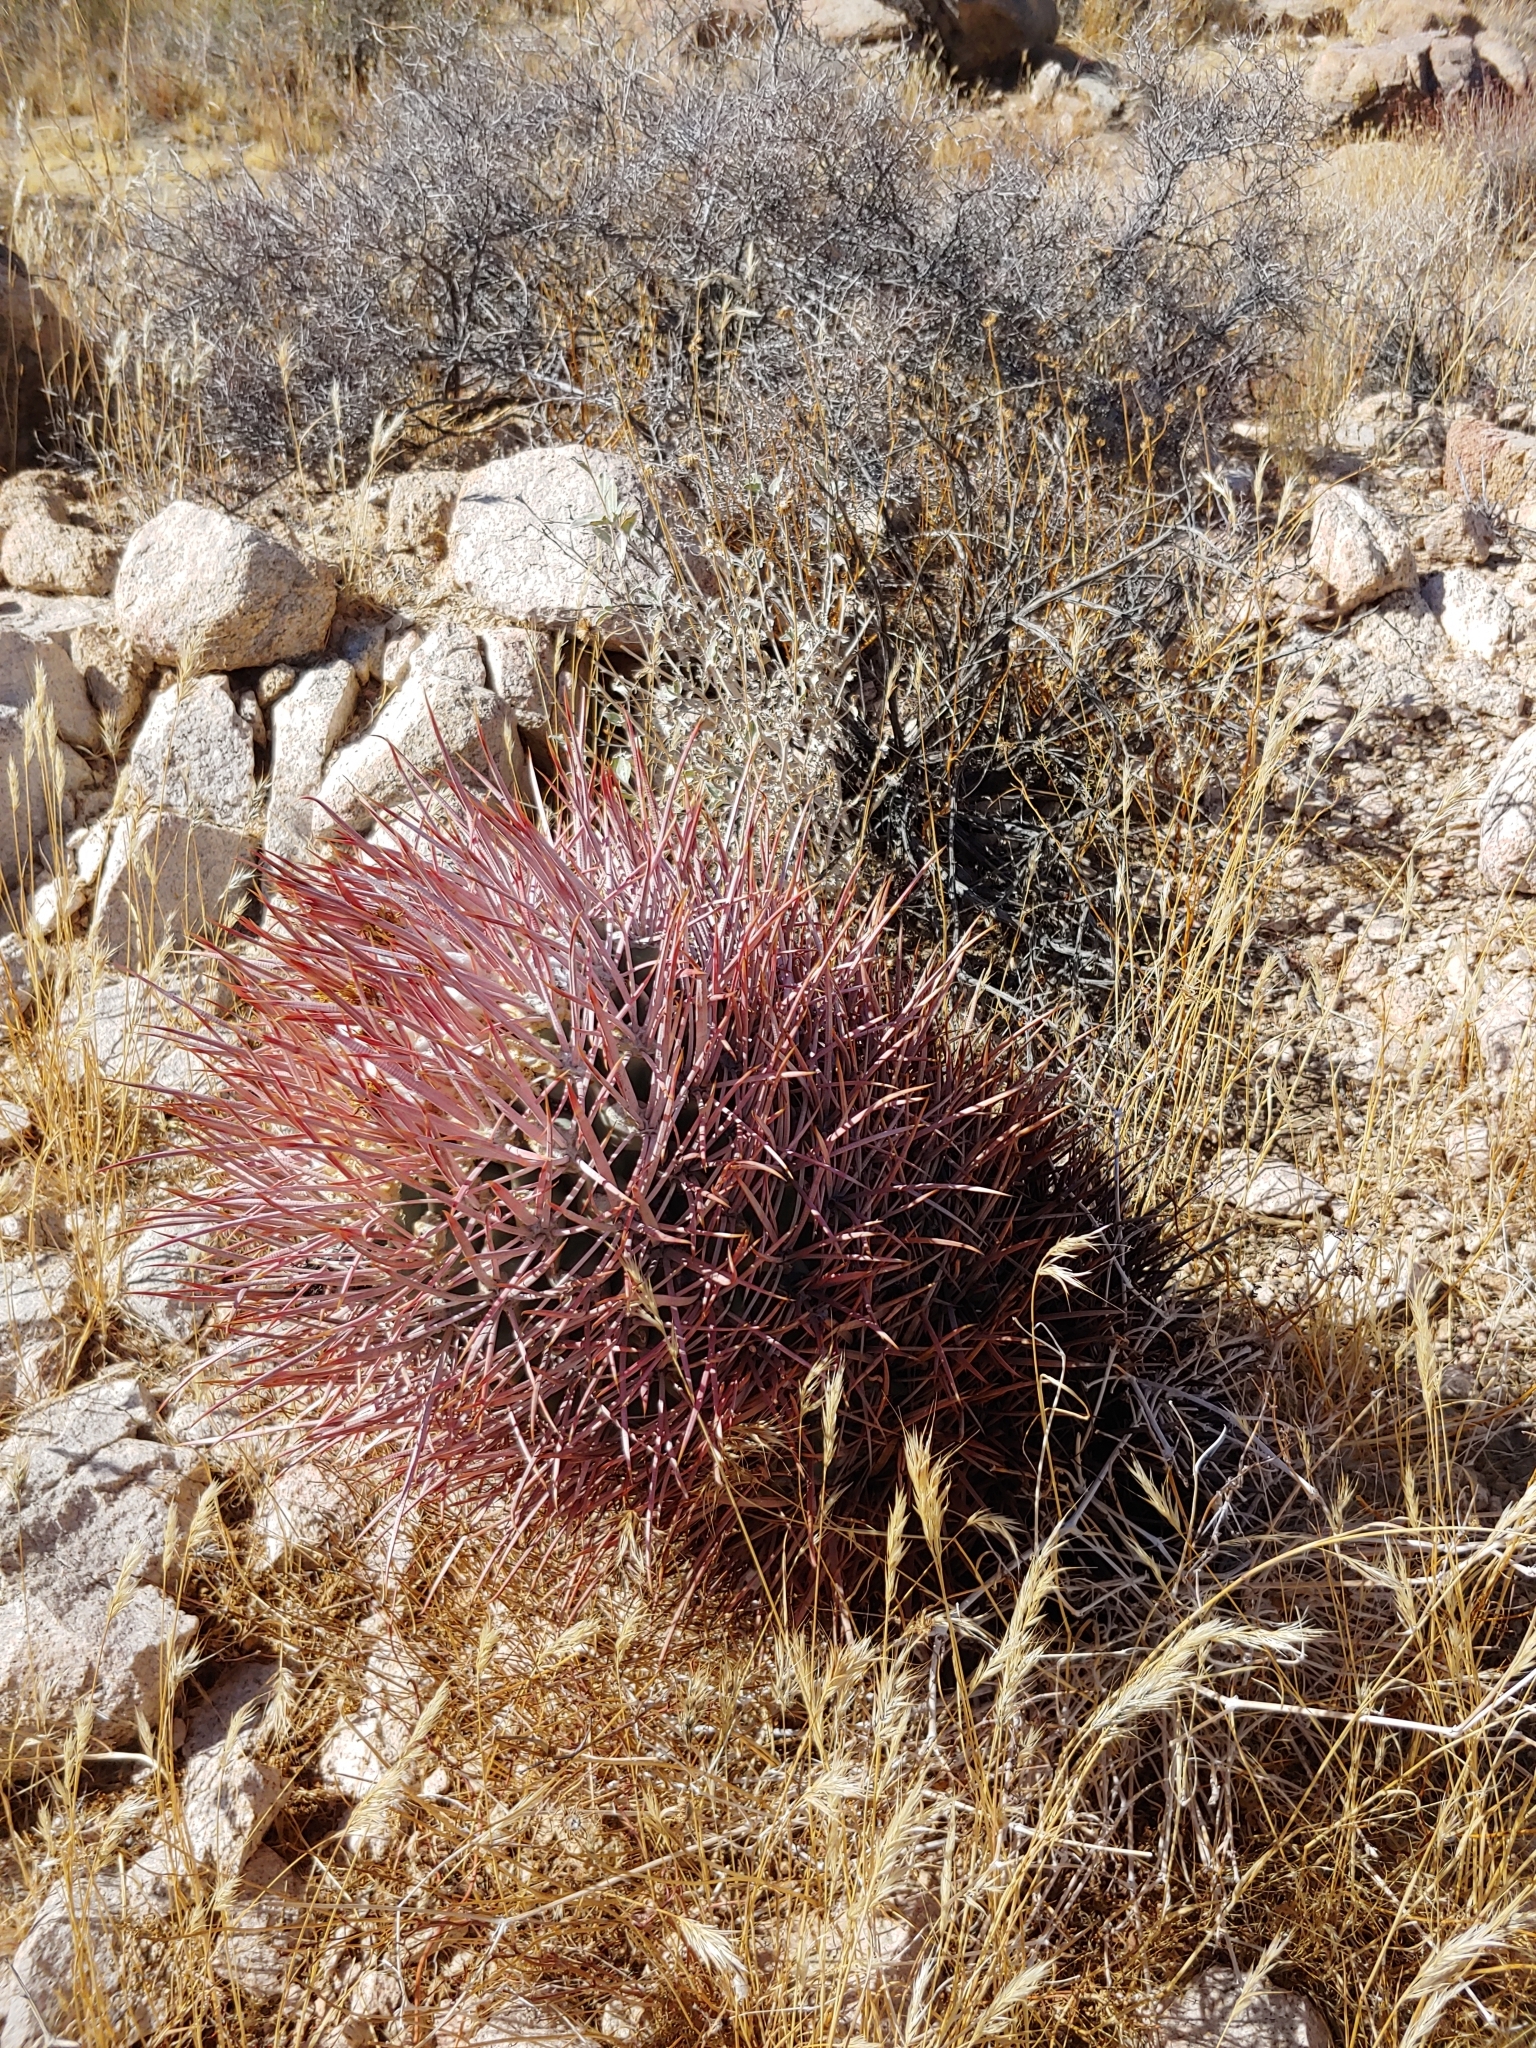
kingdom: Plantae
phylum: Tracheophyta
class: Magnoliopsida
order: Caryophyllales
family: Cactaceae
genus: Echinocactus
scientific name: Echinocactus polycephalus
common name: Cottontop cactus
